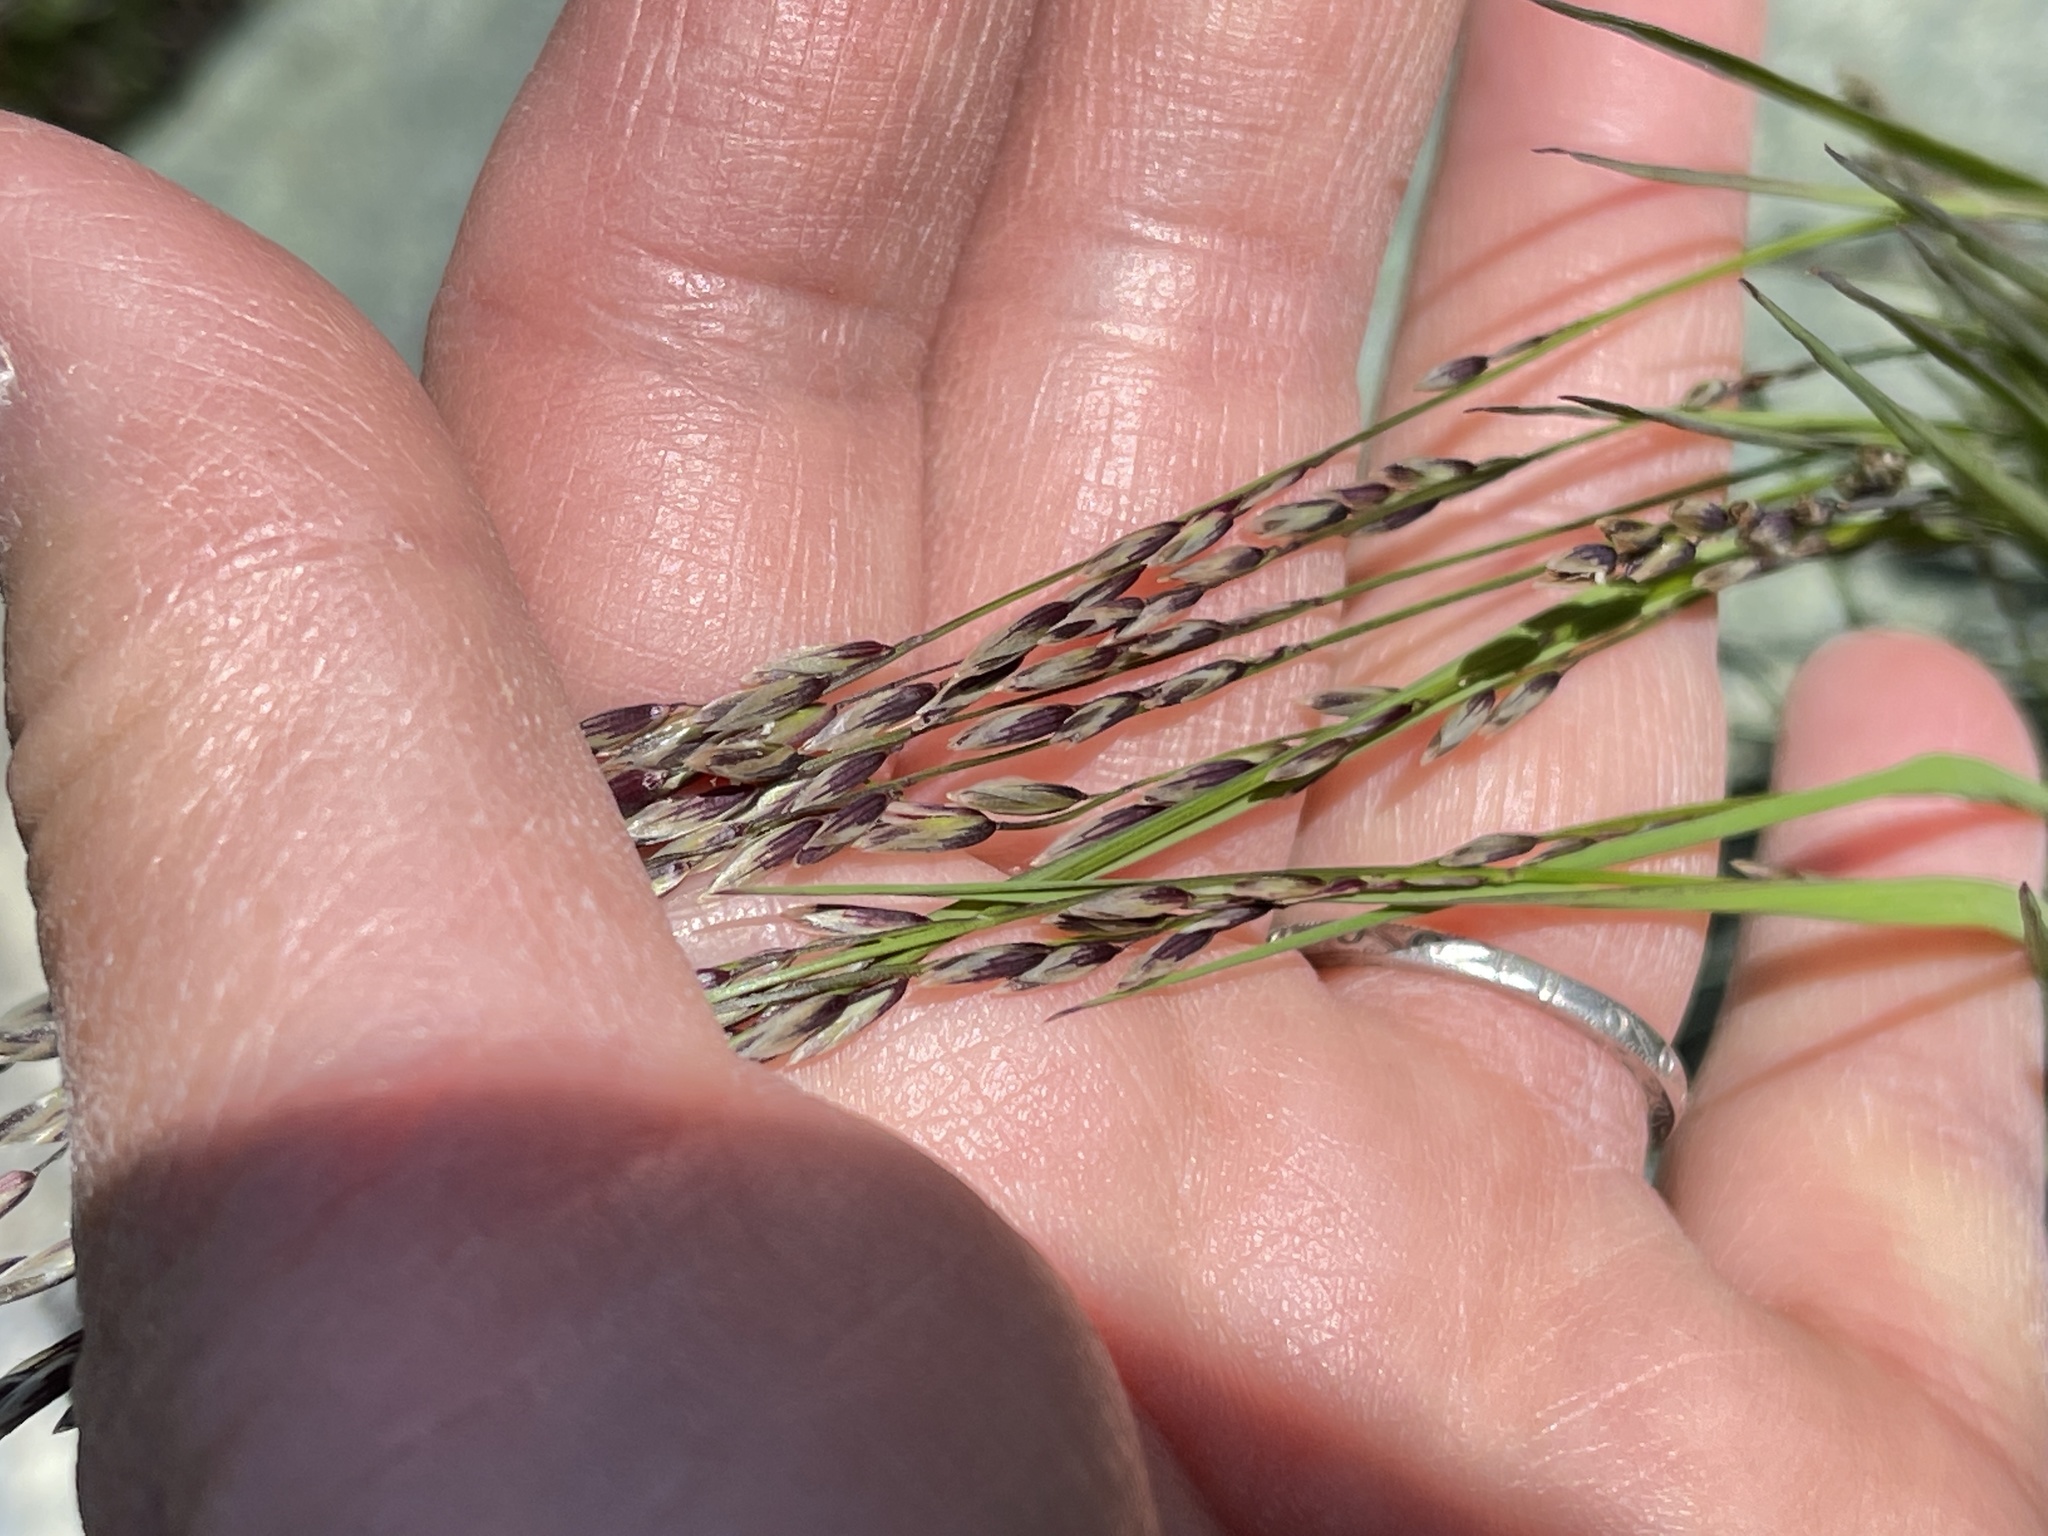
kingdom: Plantae
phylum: Tracheophyta
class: Liliopsida
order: Poales
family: Poaceae
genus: Melica
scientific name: Melica torreyana
